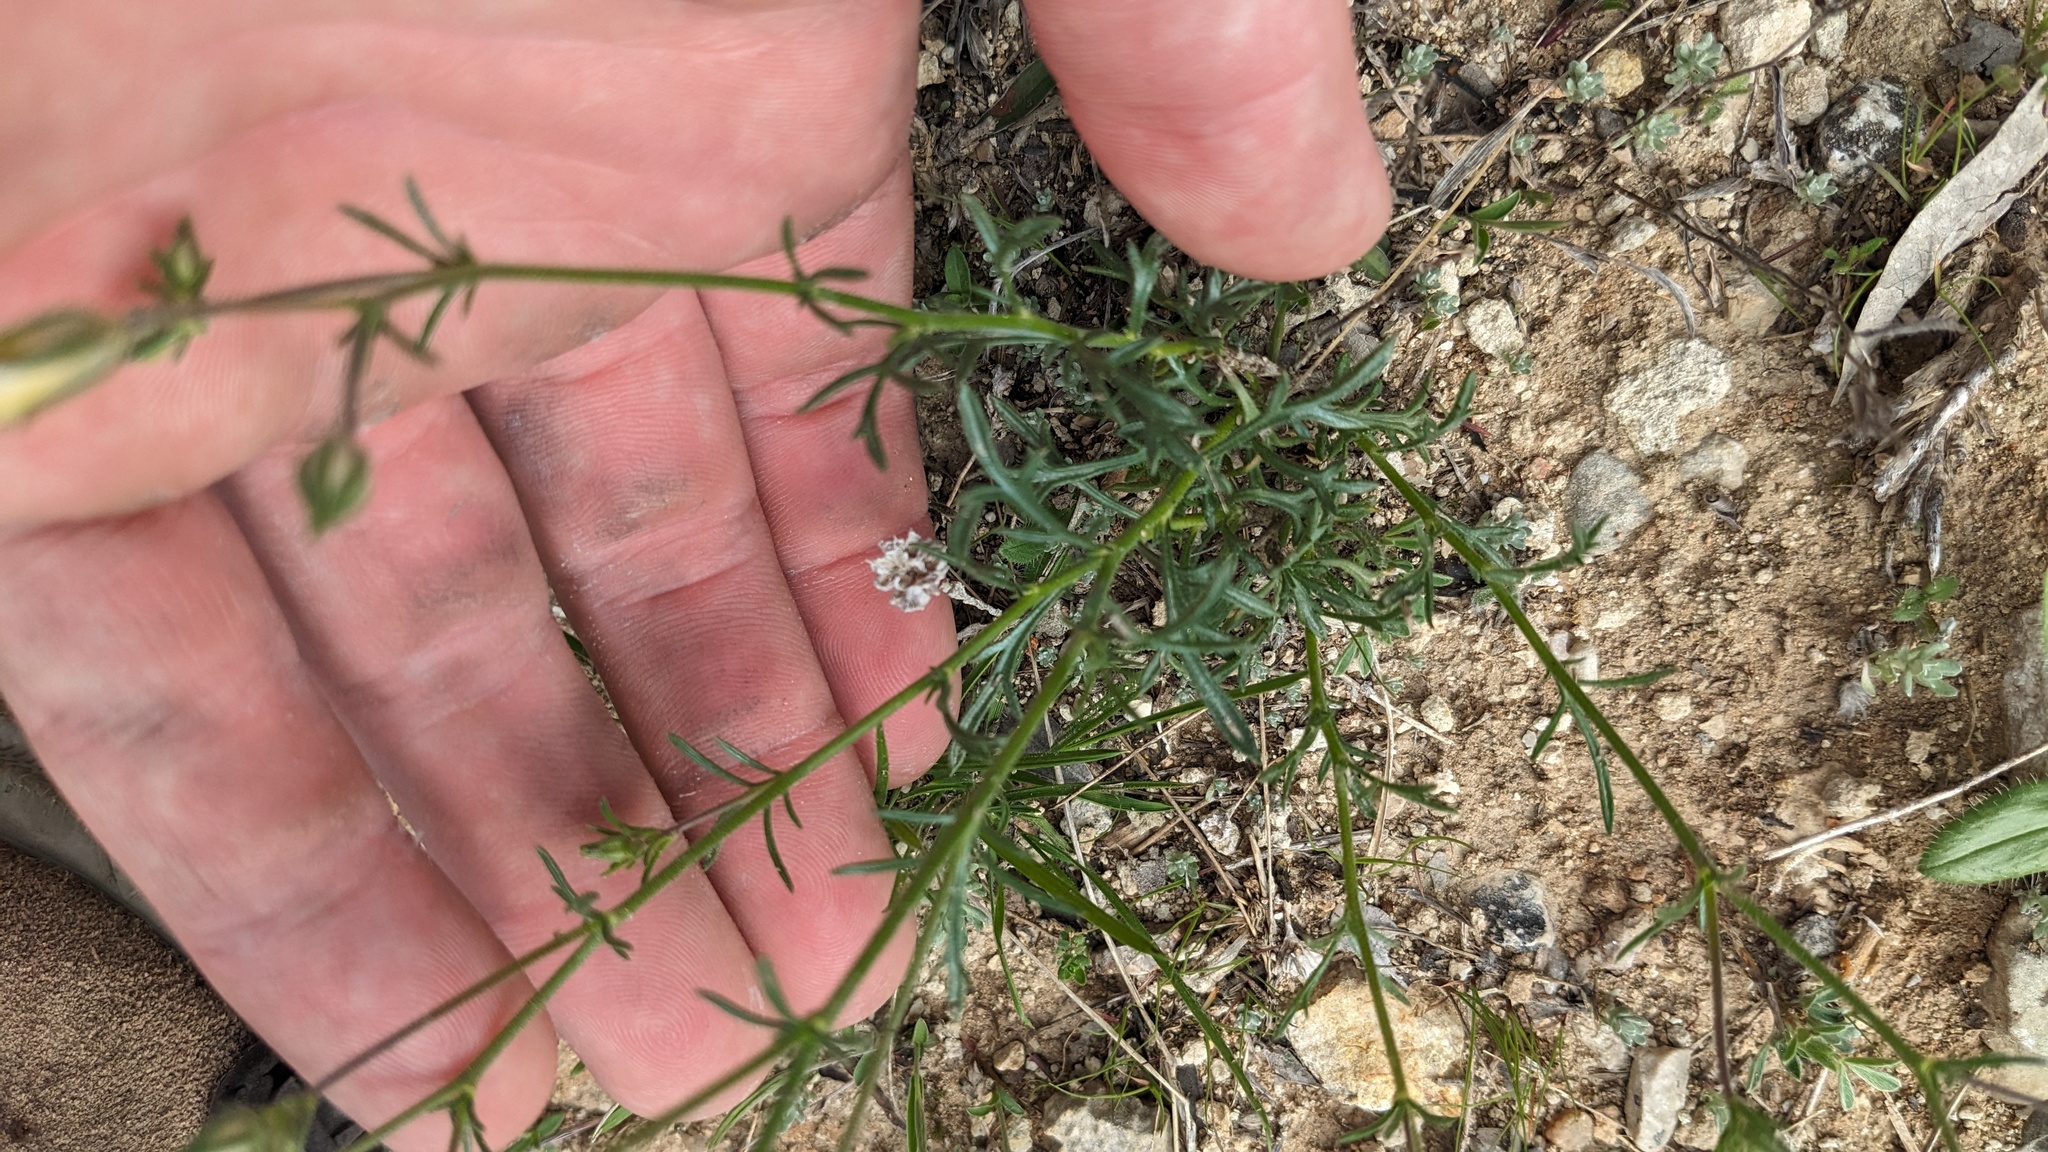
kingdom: Plantae
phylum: Tracheophyta
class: Magnoliopsida
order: Ericales
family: Polemoniaceae
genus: Giliastrum
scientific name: Giliastrum rigidulum
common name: Bluebowls
